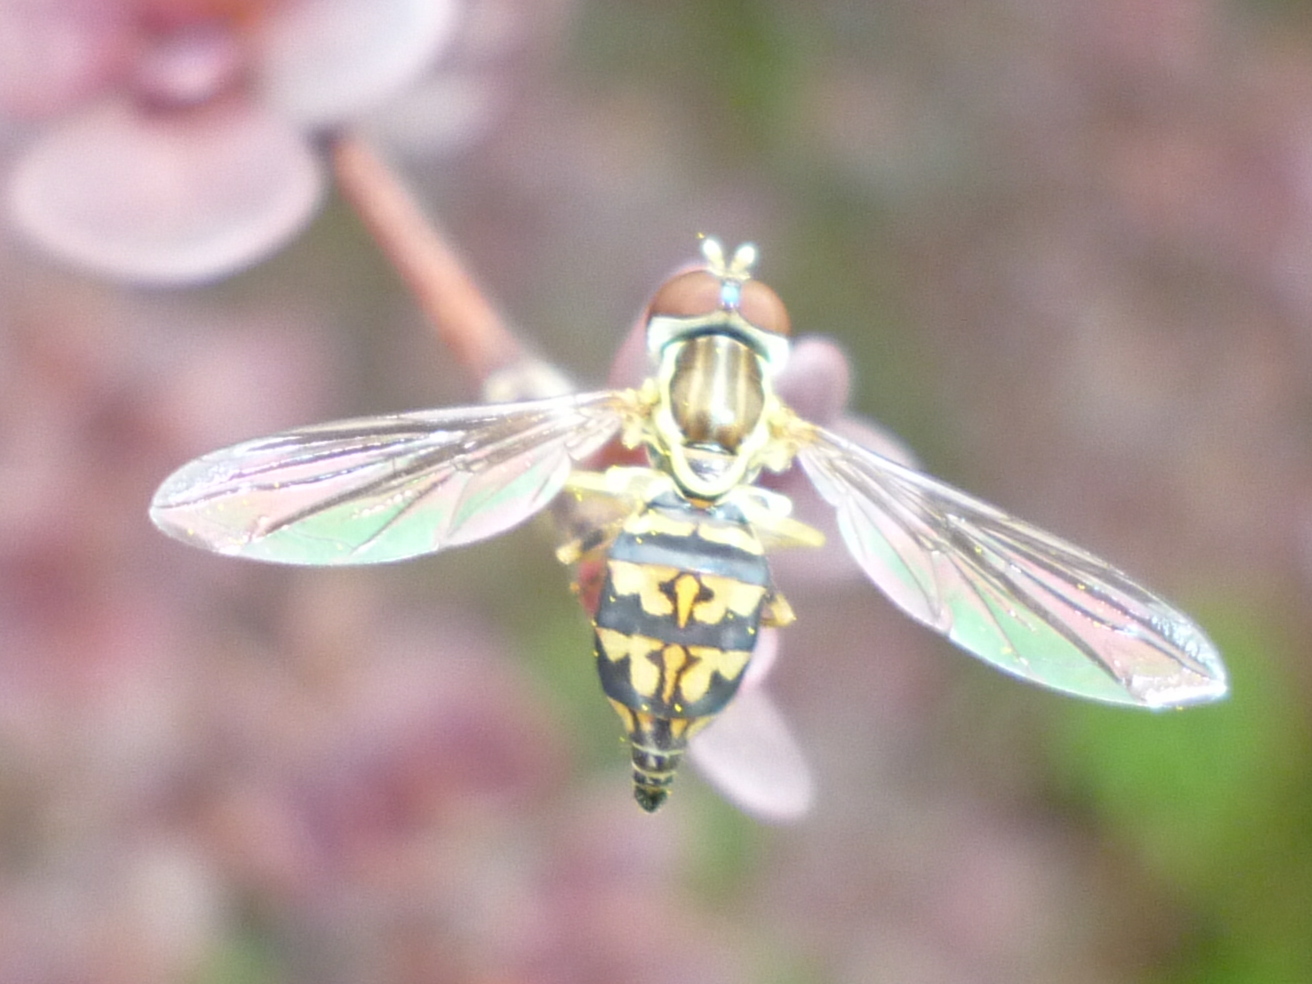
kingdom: Animalia
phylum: Arthropoda
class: Insecta
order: Diptera
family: Syrphidae
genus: Toxomerus
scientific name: Toxomerus geminatus
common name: Eastern calligrapher
